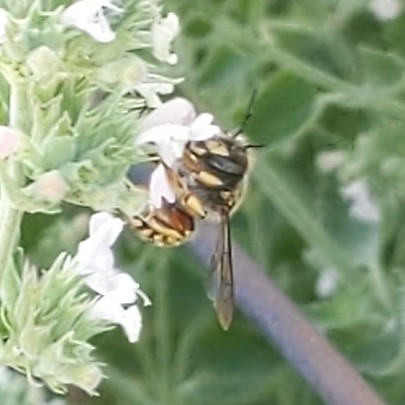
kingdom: Animalia
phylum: Arthropoda
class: Insecta
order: Hymenoptera
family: Megachilidae
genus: Anthidium
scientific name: Anthidium manicatum
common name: Wool carder bee
